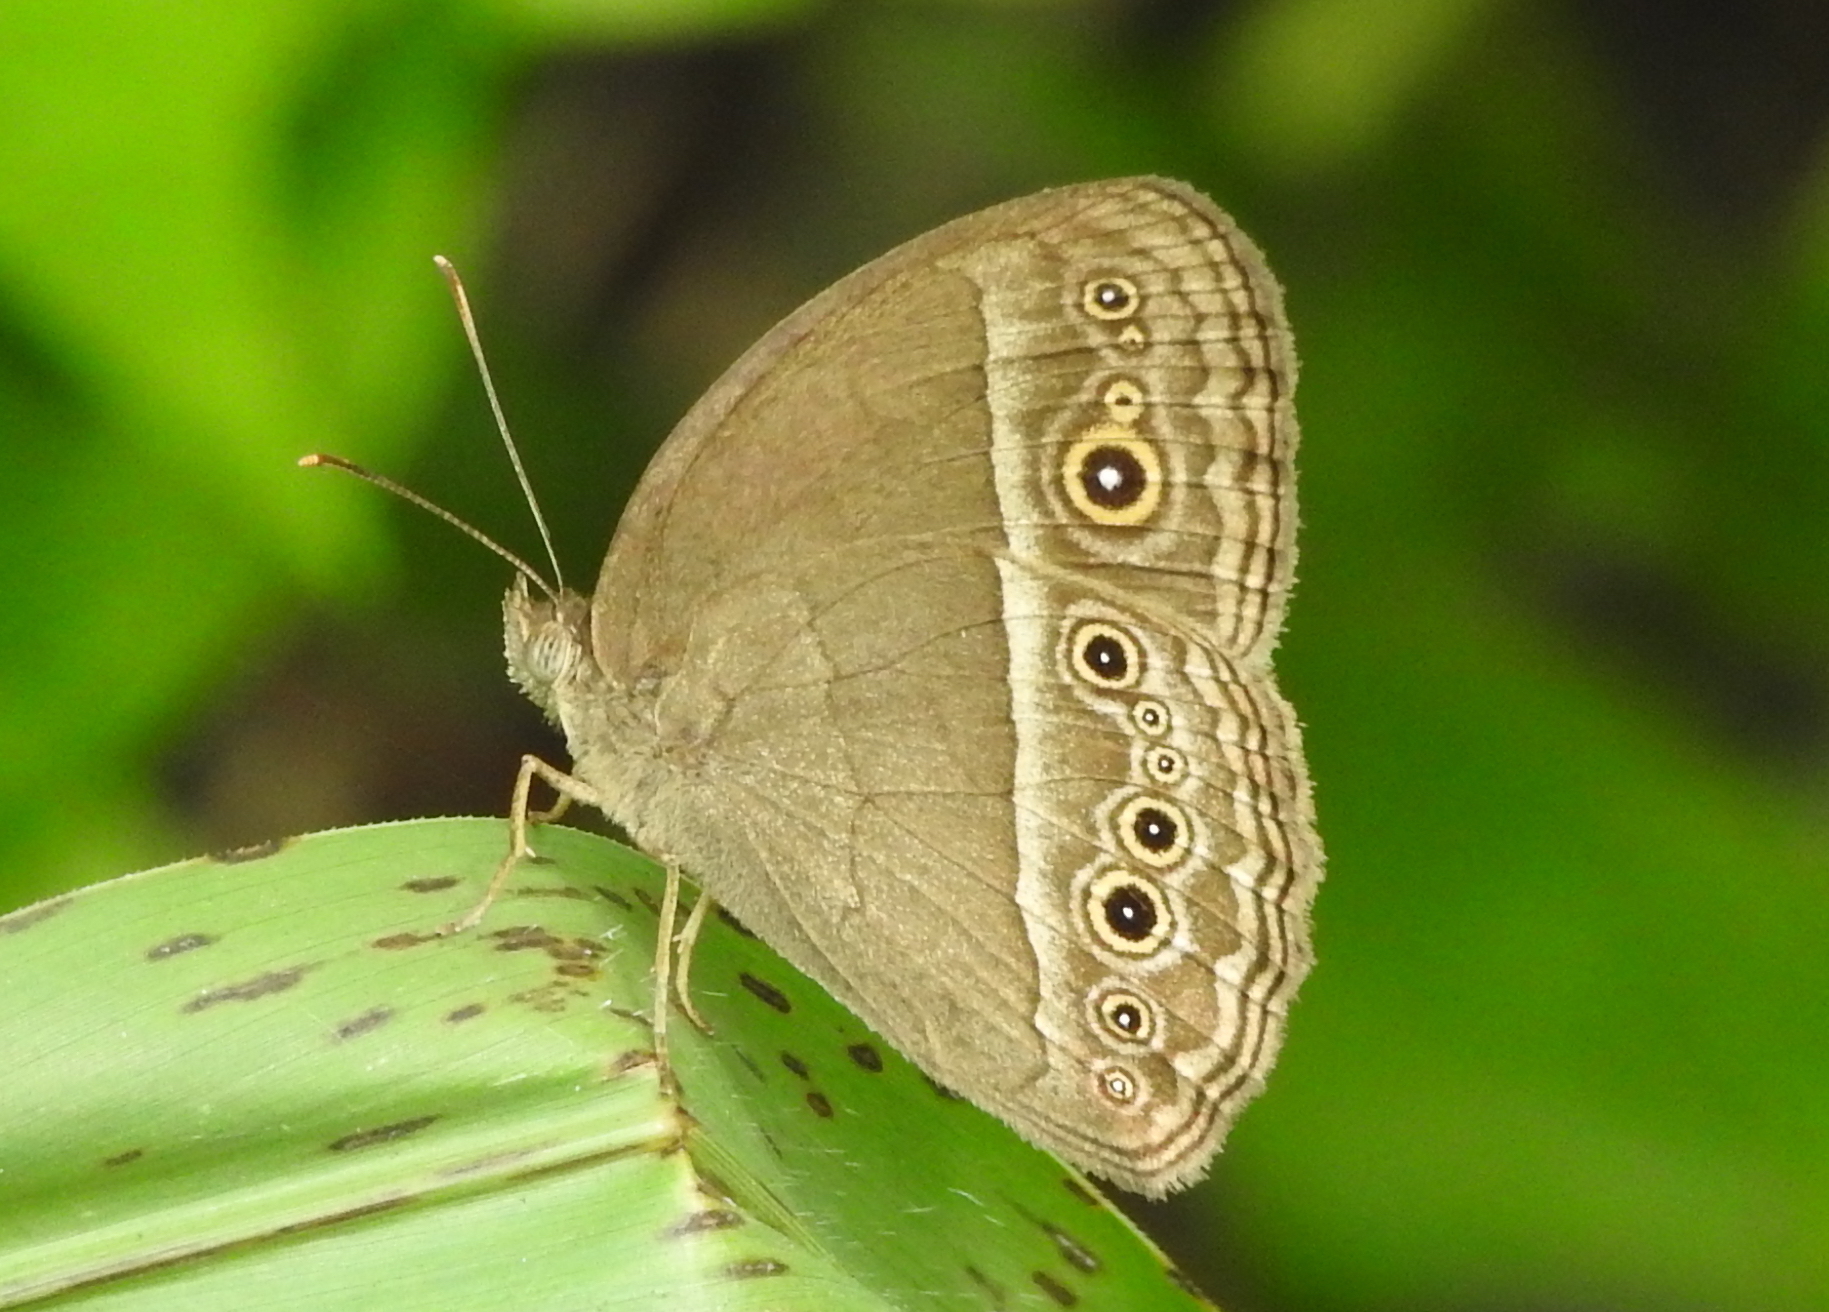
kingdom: Animalia
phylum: Arthropoda
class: Insecta
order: Lepidoptera
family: Nymphalidae
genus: Mycalesis
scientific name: Mycalesis perseoides
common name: Burmese bushbrown
